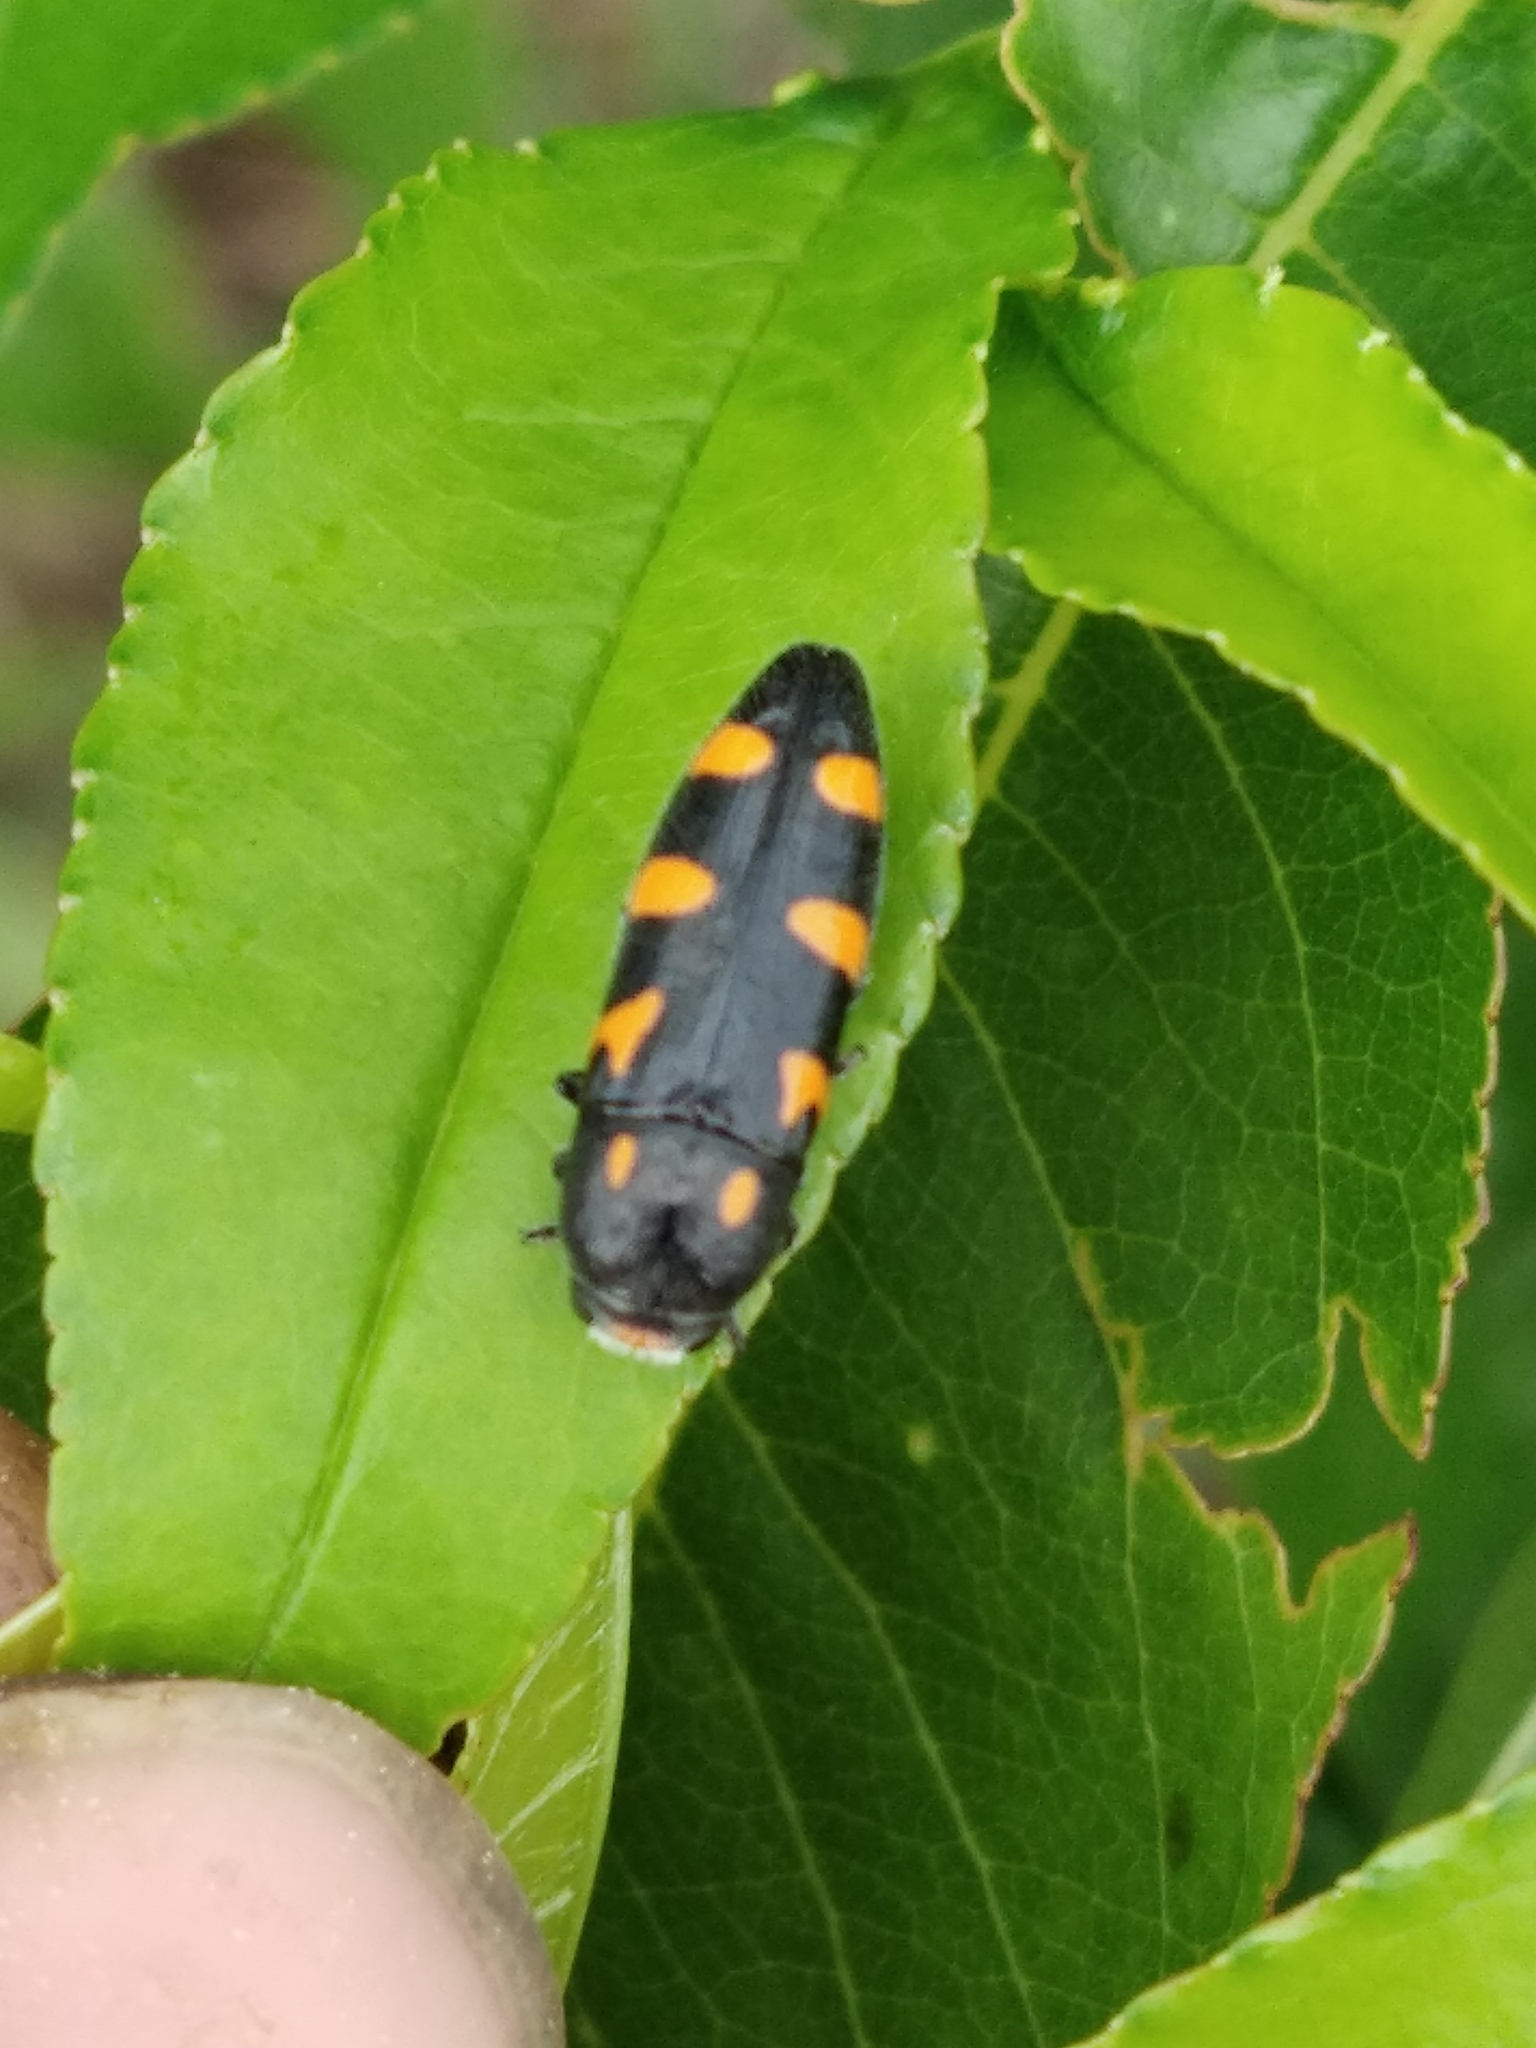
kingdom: Animalia
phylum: Arthropoda
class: Insecta
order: Coleoptera
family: Buprestidae
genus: Ptosima
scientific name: Ptosima undecimmaculata
